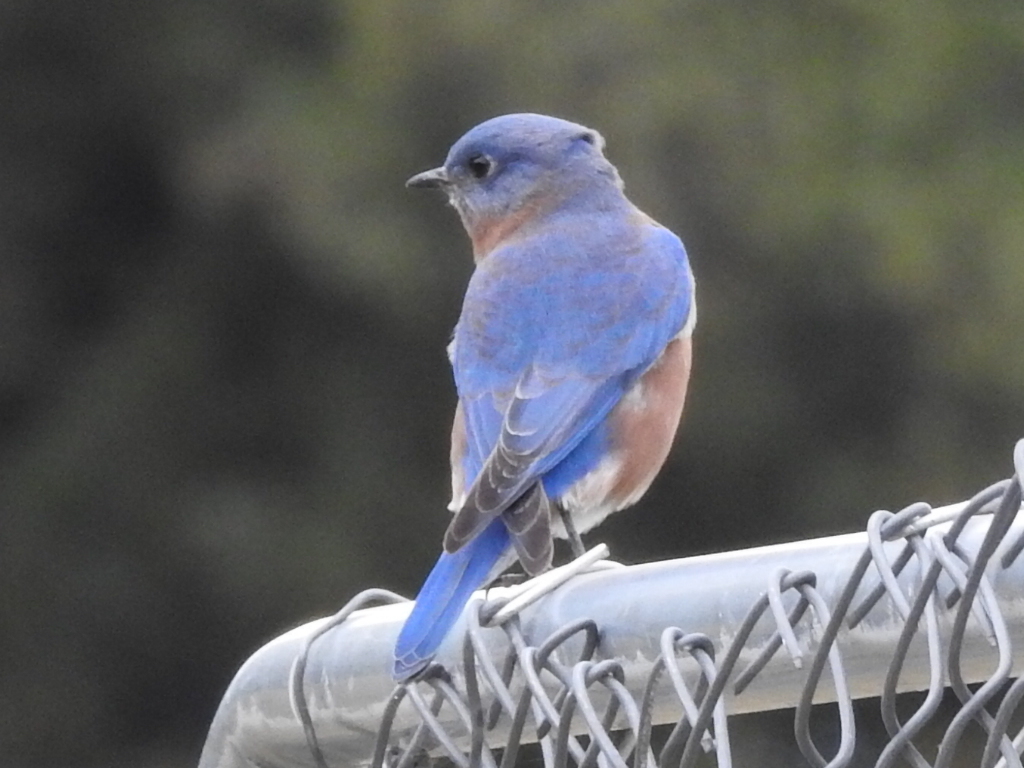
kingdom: Animalia
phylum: Chordata
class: Aves
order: Passeriformes
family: Turdidae
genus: Sialia
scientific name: Sialia sialis
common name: Eastern bluebird
